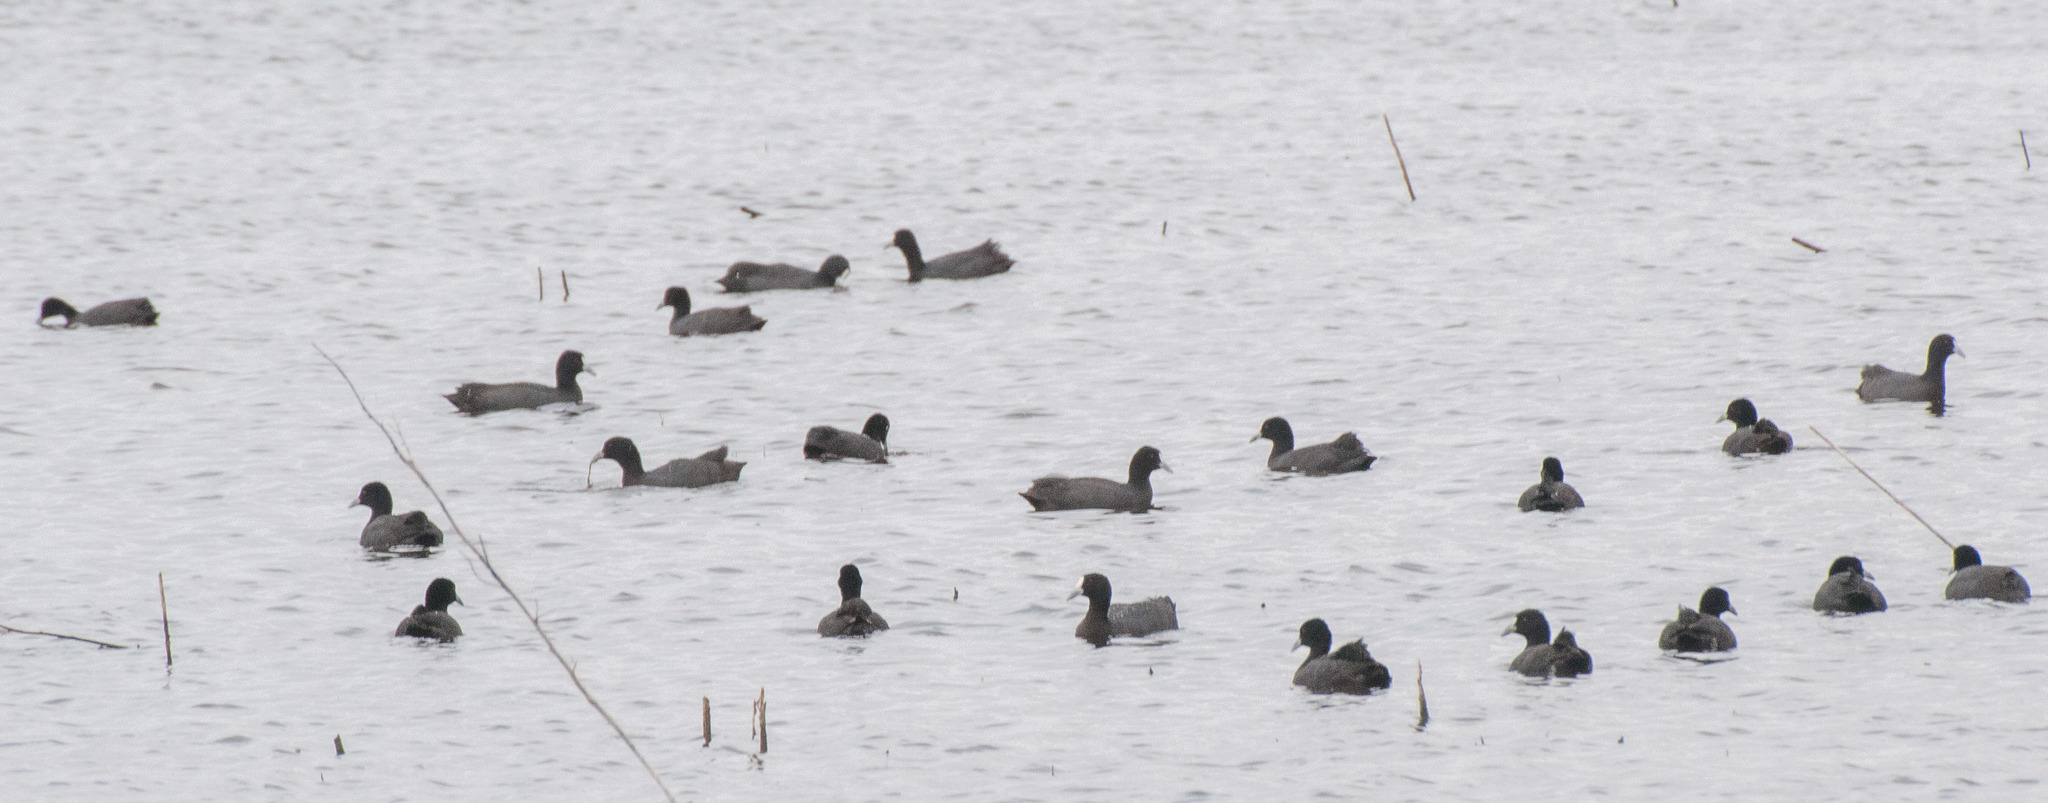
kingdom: Animalia
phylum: Chordata
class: Aves
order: Gruiformes
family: Rallidae
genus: Fulica
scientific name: Fulica atra
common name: Eurasian coot
